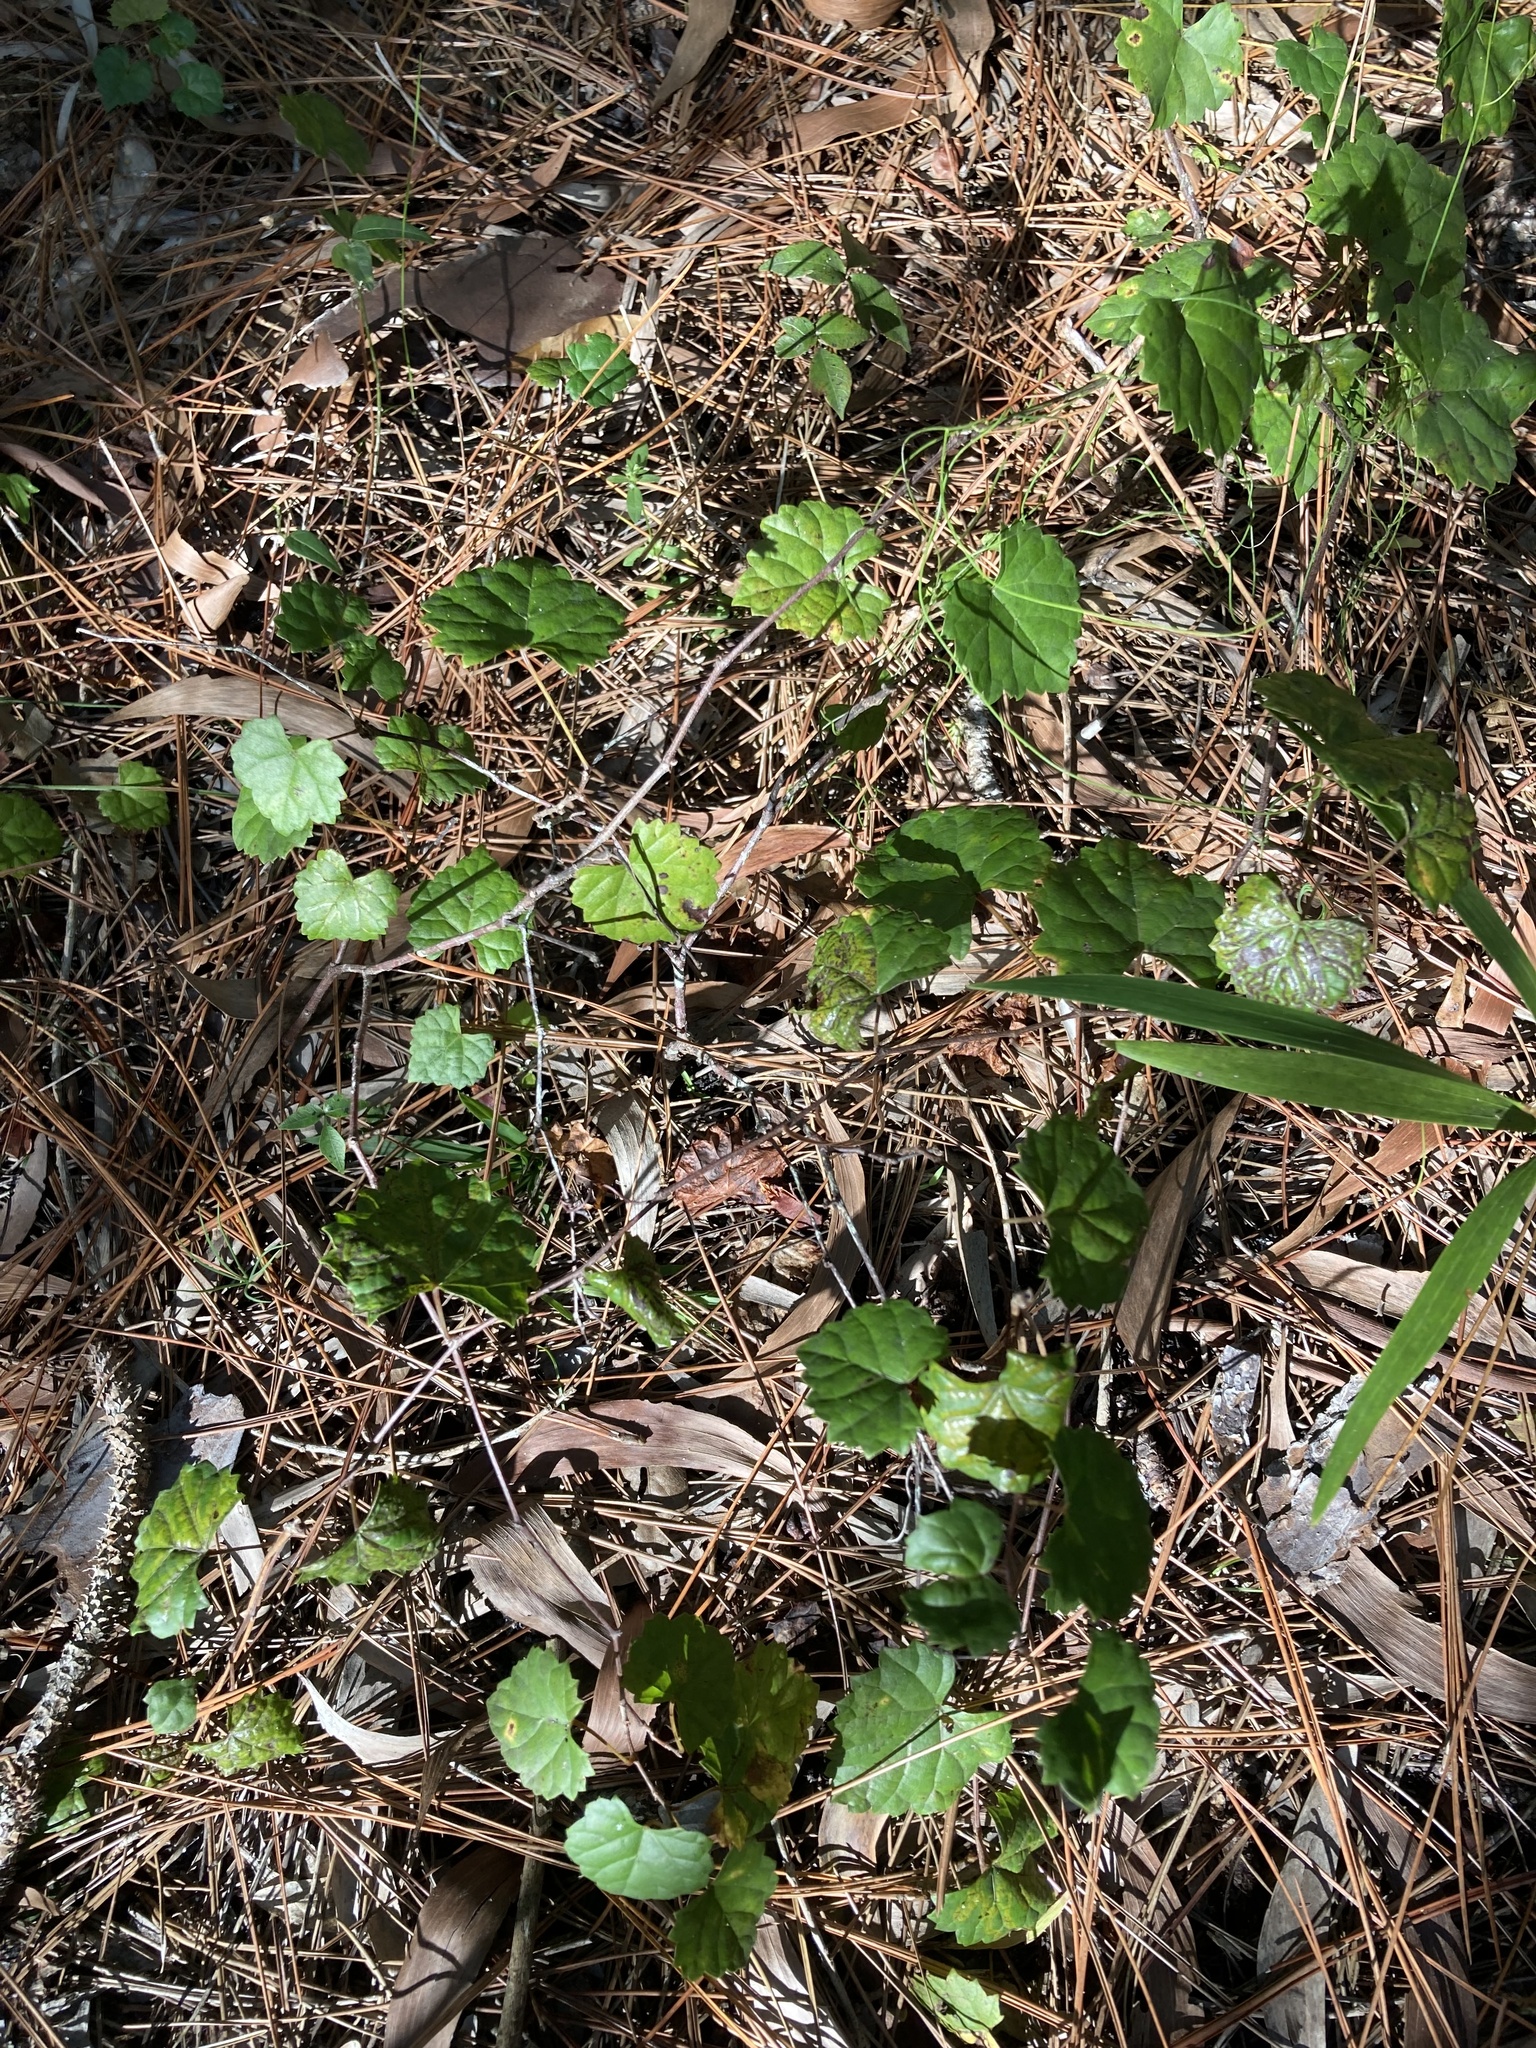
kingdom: Plantae
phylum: Tracheophyta
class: Magnoliopsida
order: Vitales
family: Vitaceae
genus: Vitis
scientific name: Vitis rotundifolia
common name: Muscadine grape
